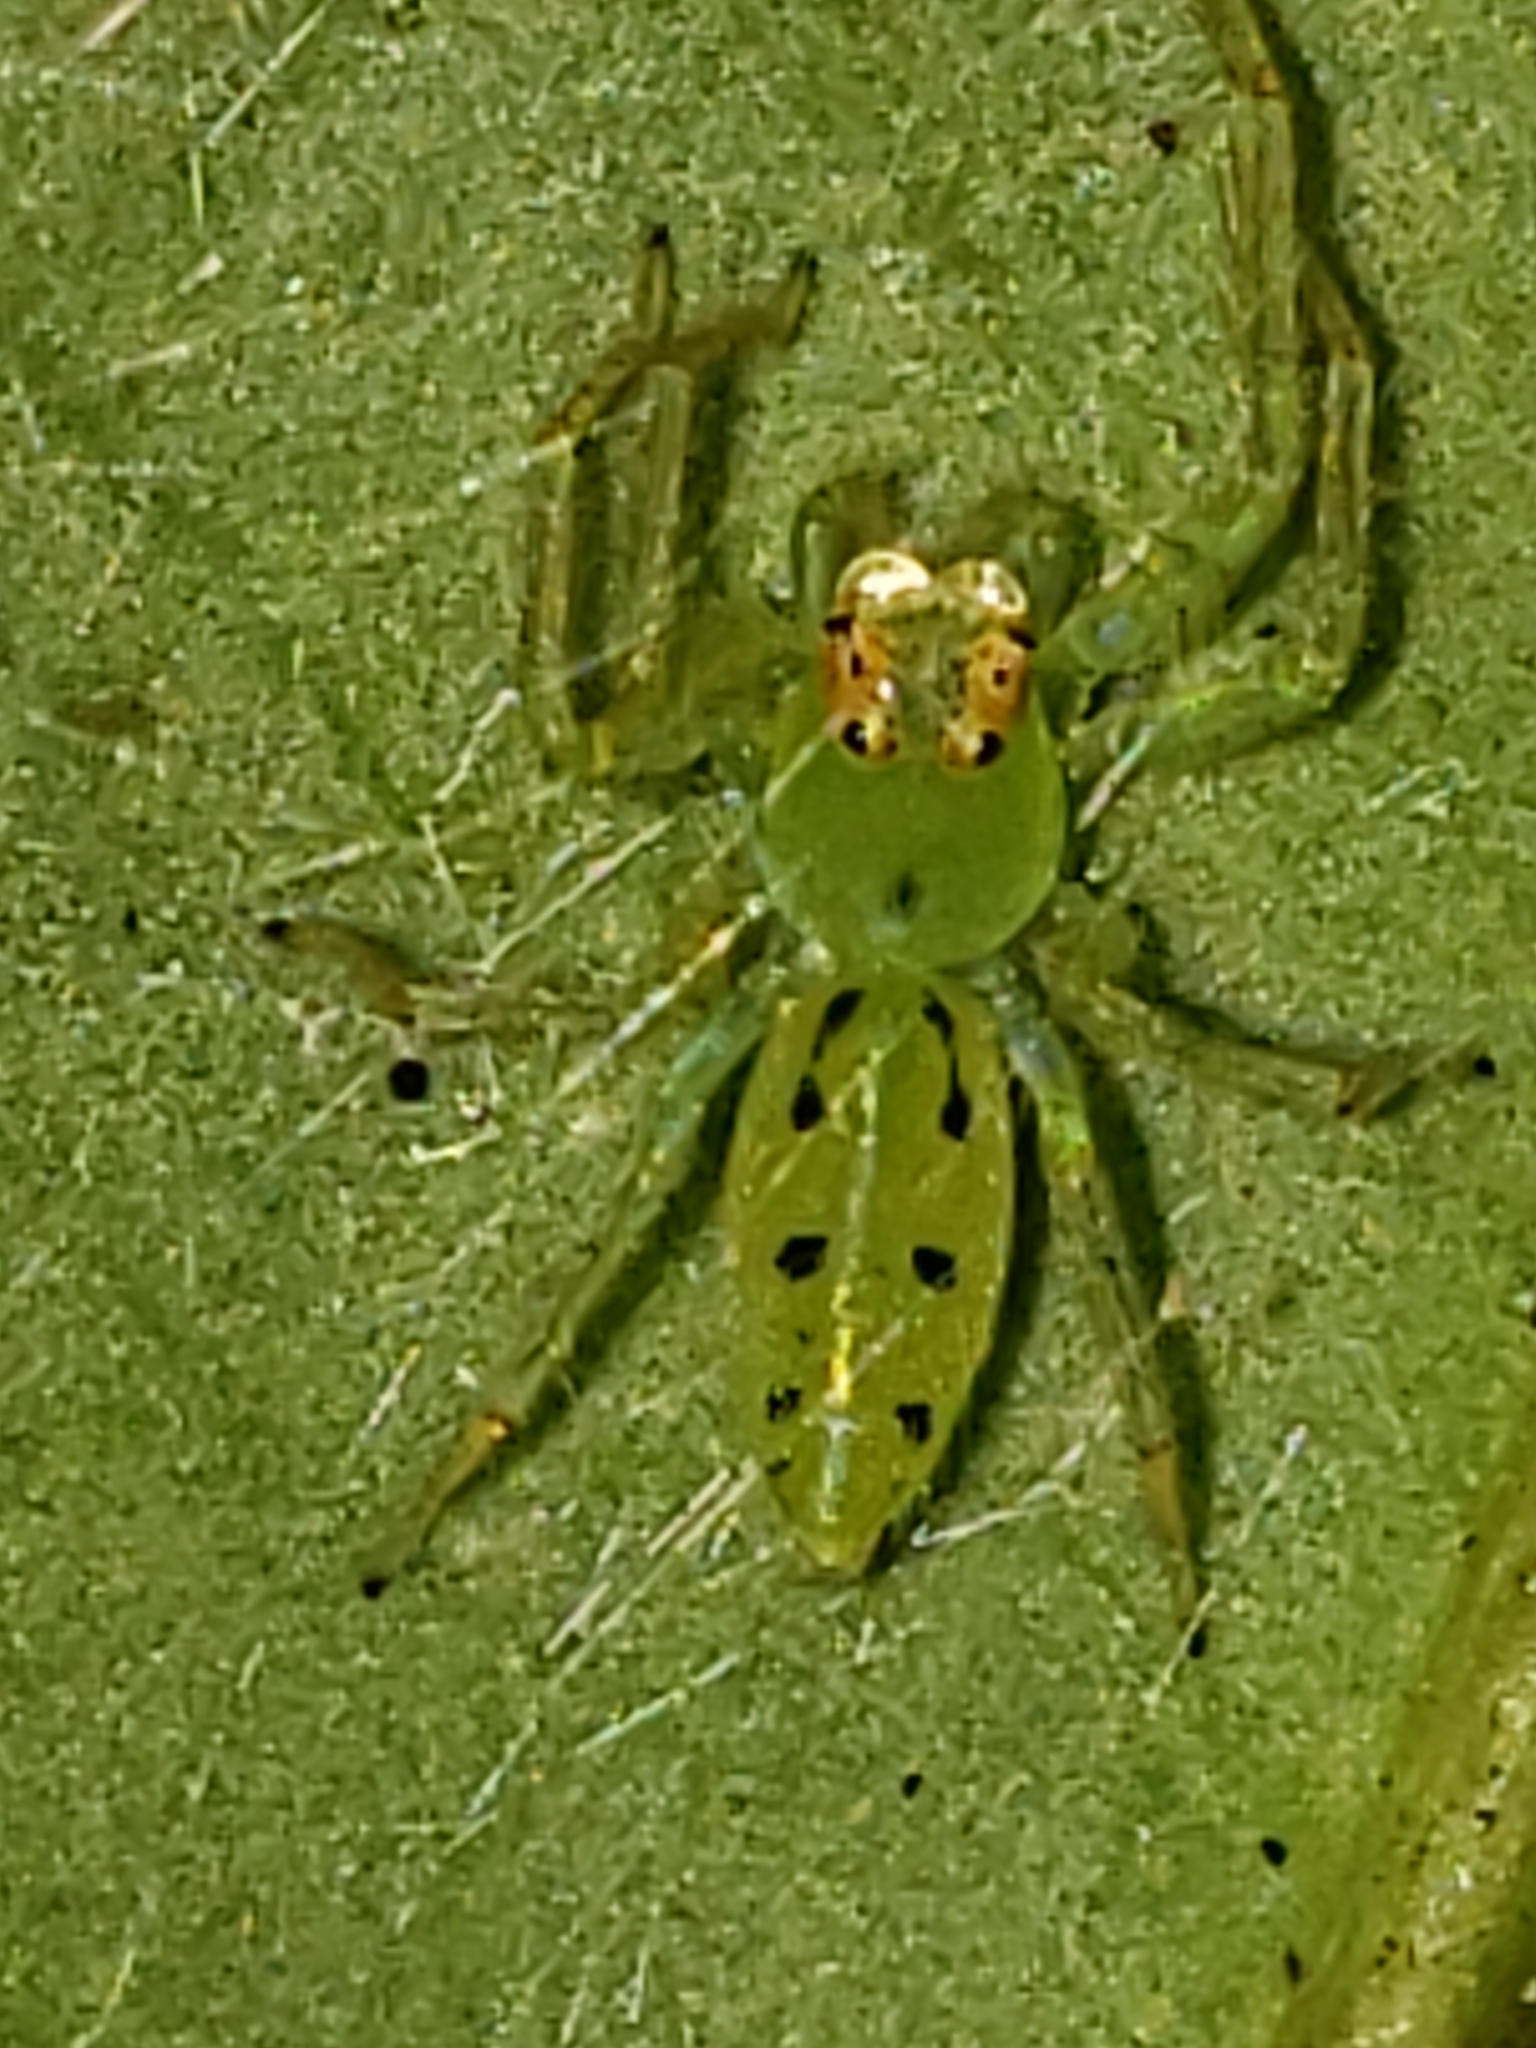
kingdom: Animalia
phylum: Arthropoda
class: Arachnida
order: Araneae
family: Salticidae
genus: Lyssomanes
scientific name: Lyssomanes viridis
